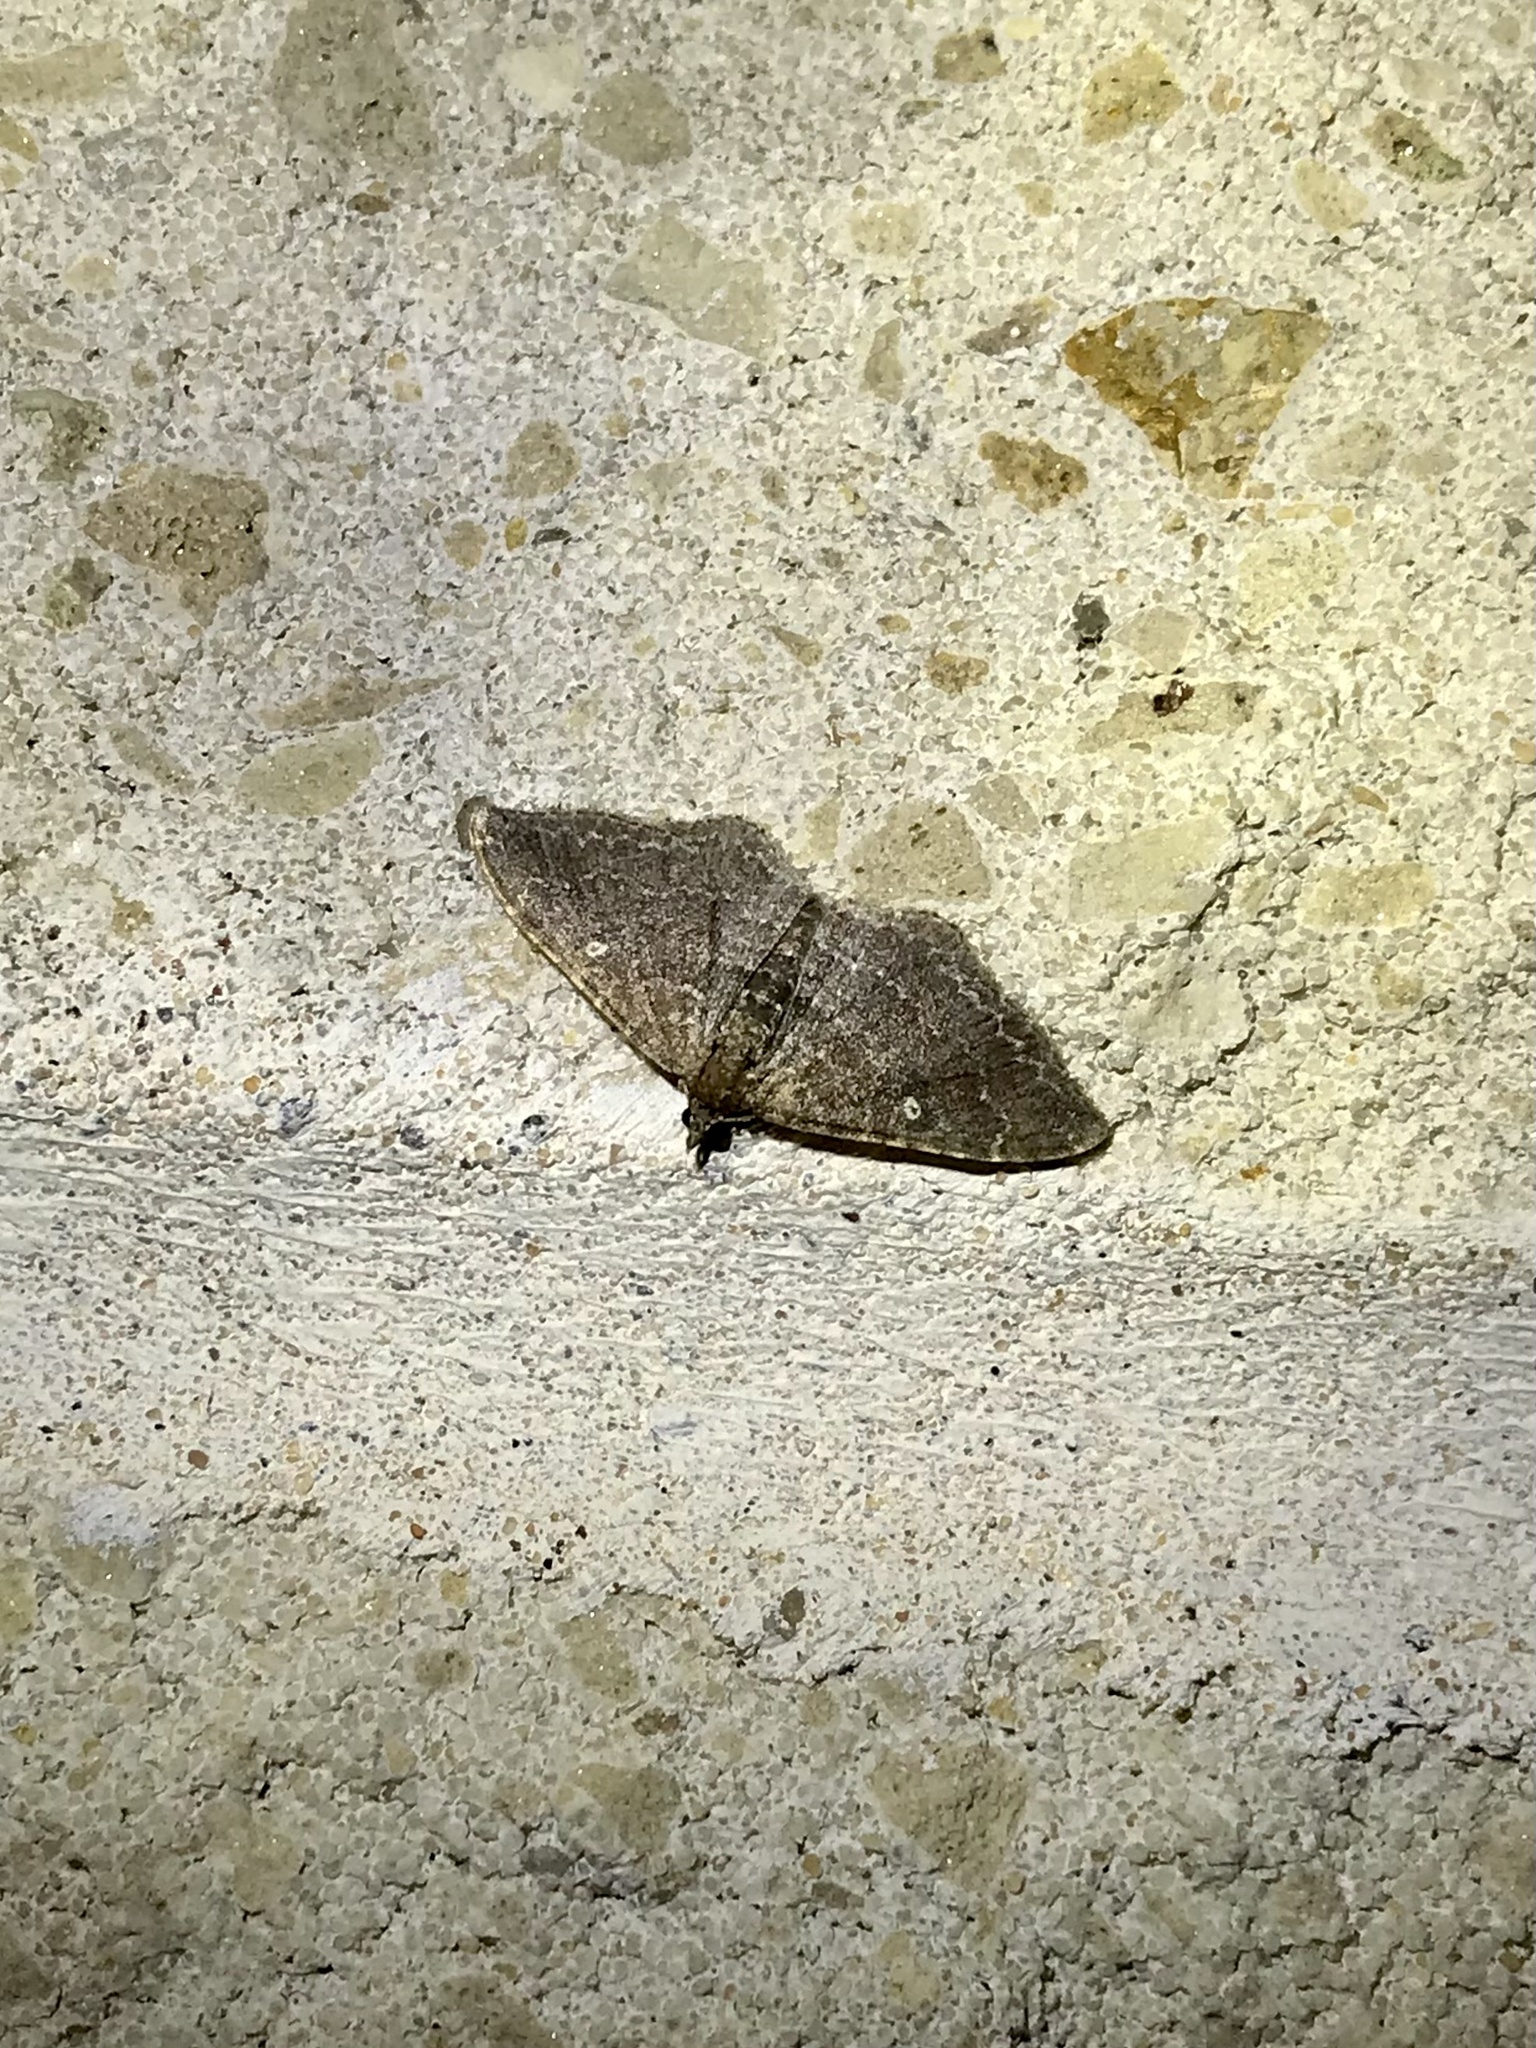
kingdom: Animalia
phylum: Arthropoda
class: Insecta
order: Lepidoptera
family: Geometridae
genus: Orthonama
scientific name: Orthonama obstipata
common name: The gem
